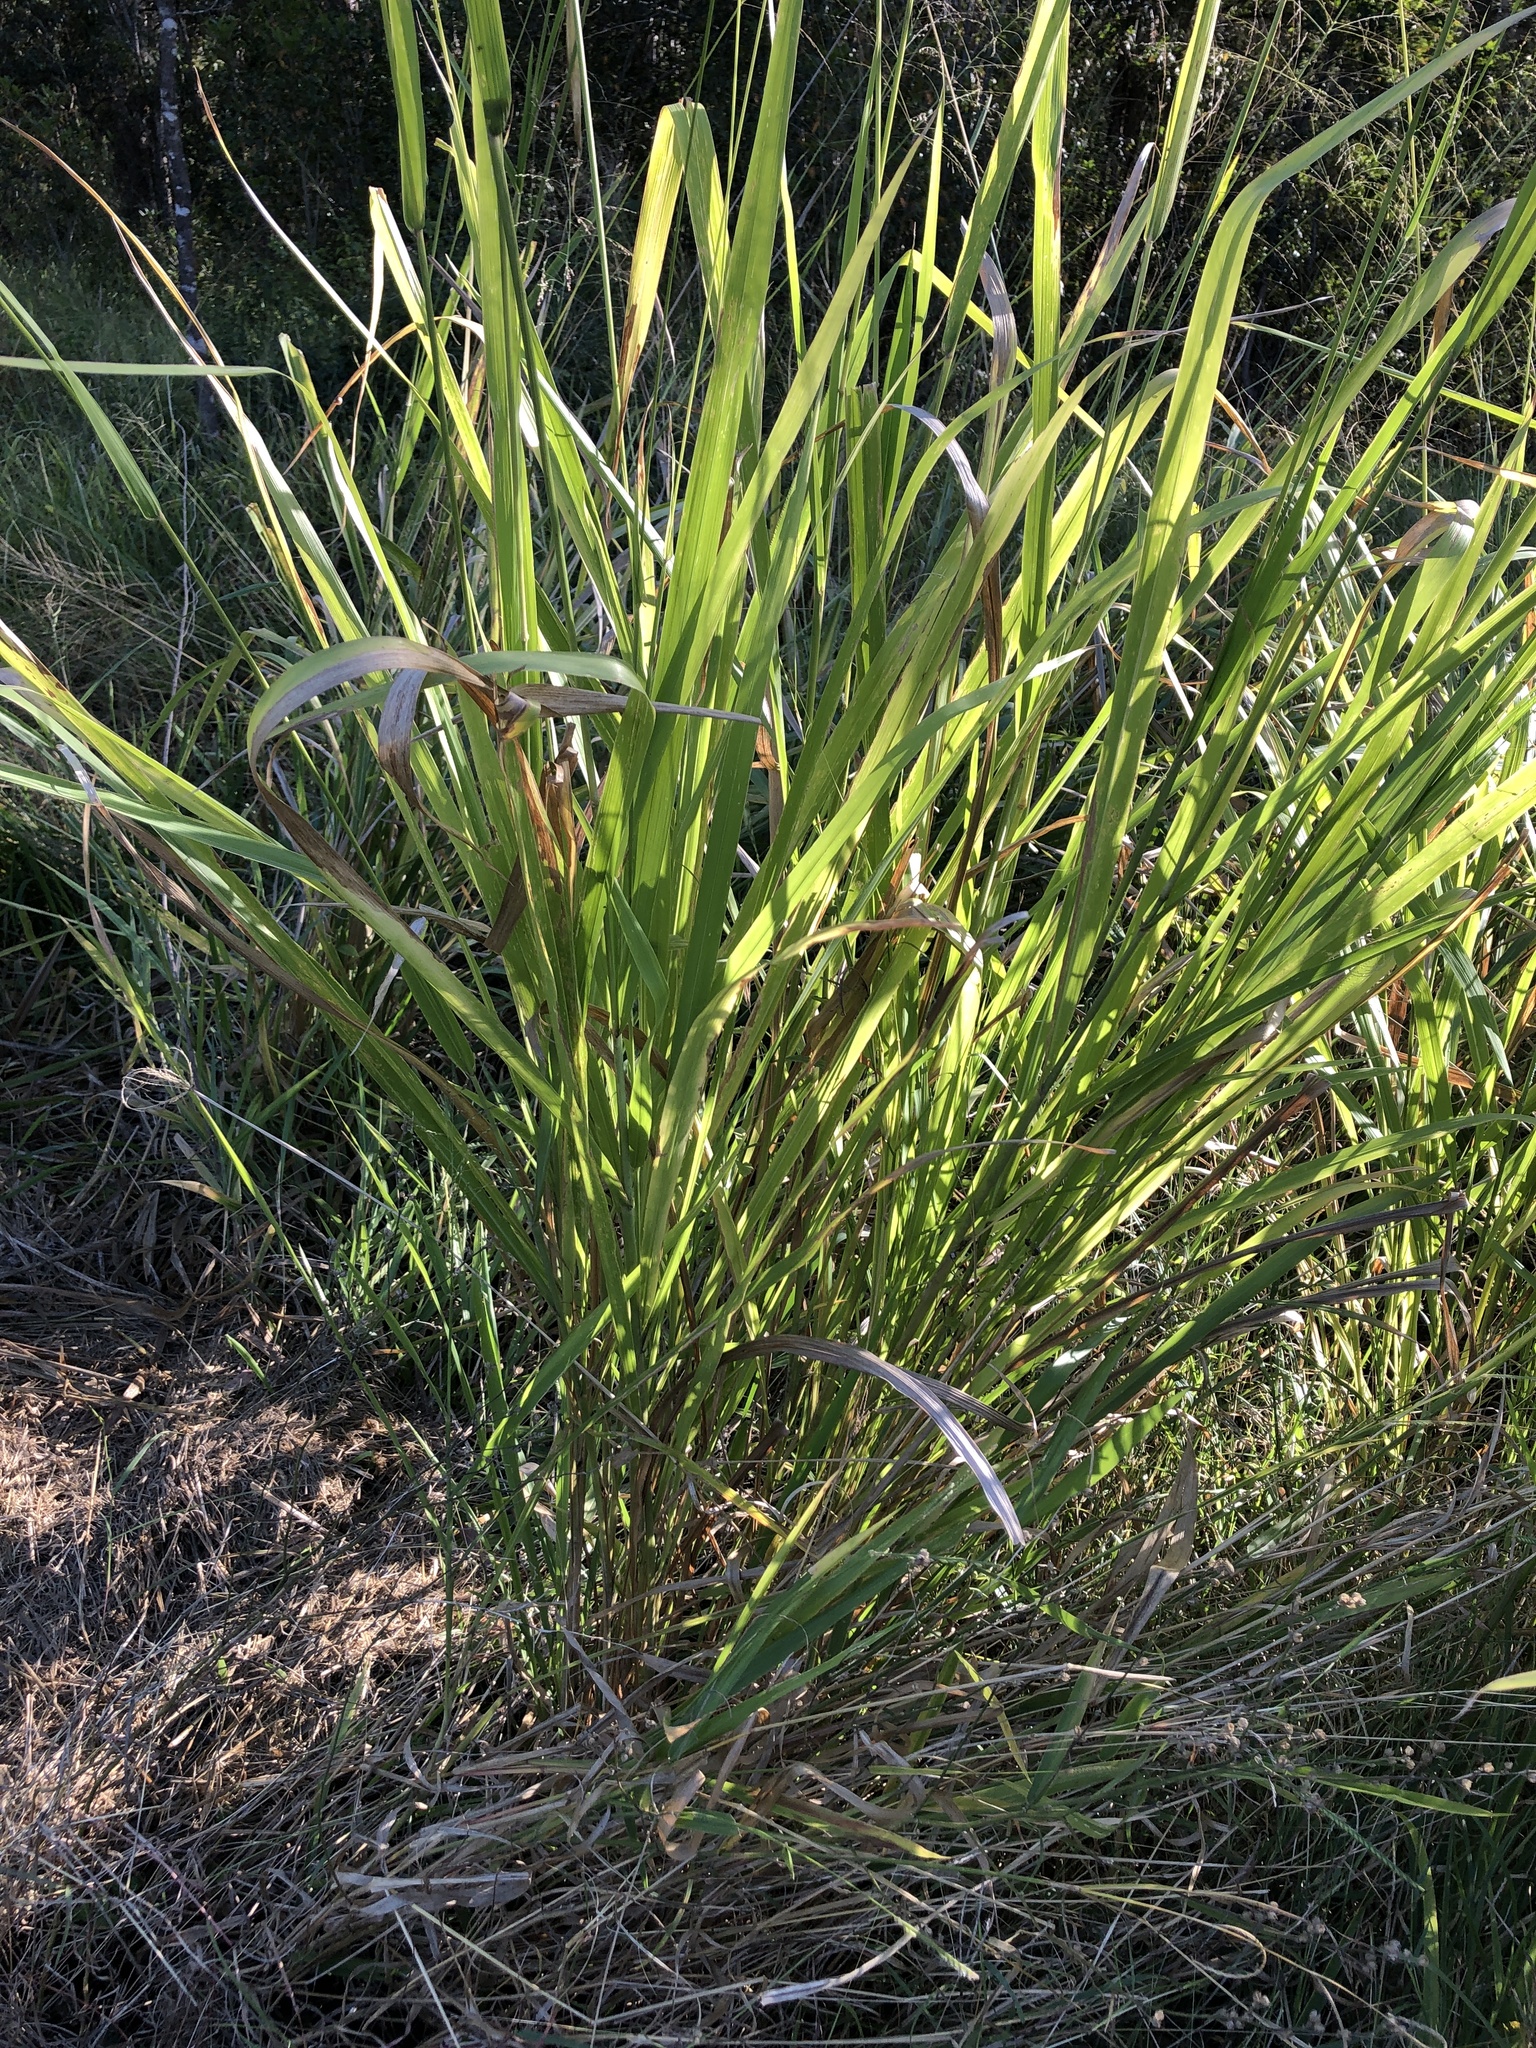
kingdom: Plantae
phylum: Tracheophyta
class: Liliopsida
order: Poales
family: Poaceae
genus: Megathyrsus
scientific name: Megathyrsus maximus
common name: Guineagrass
